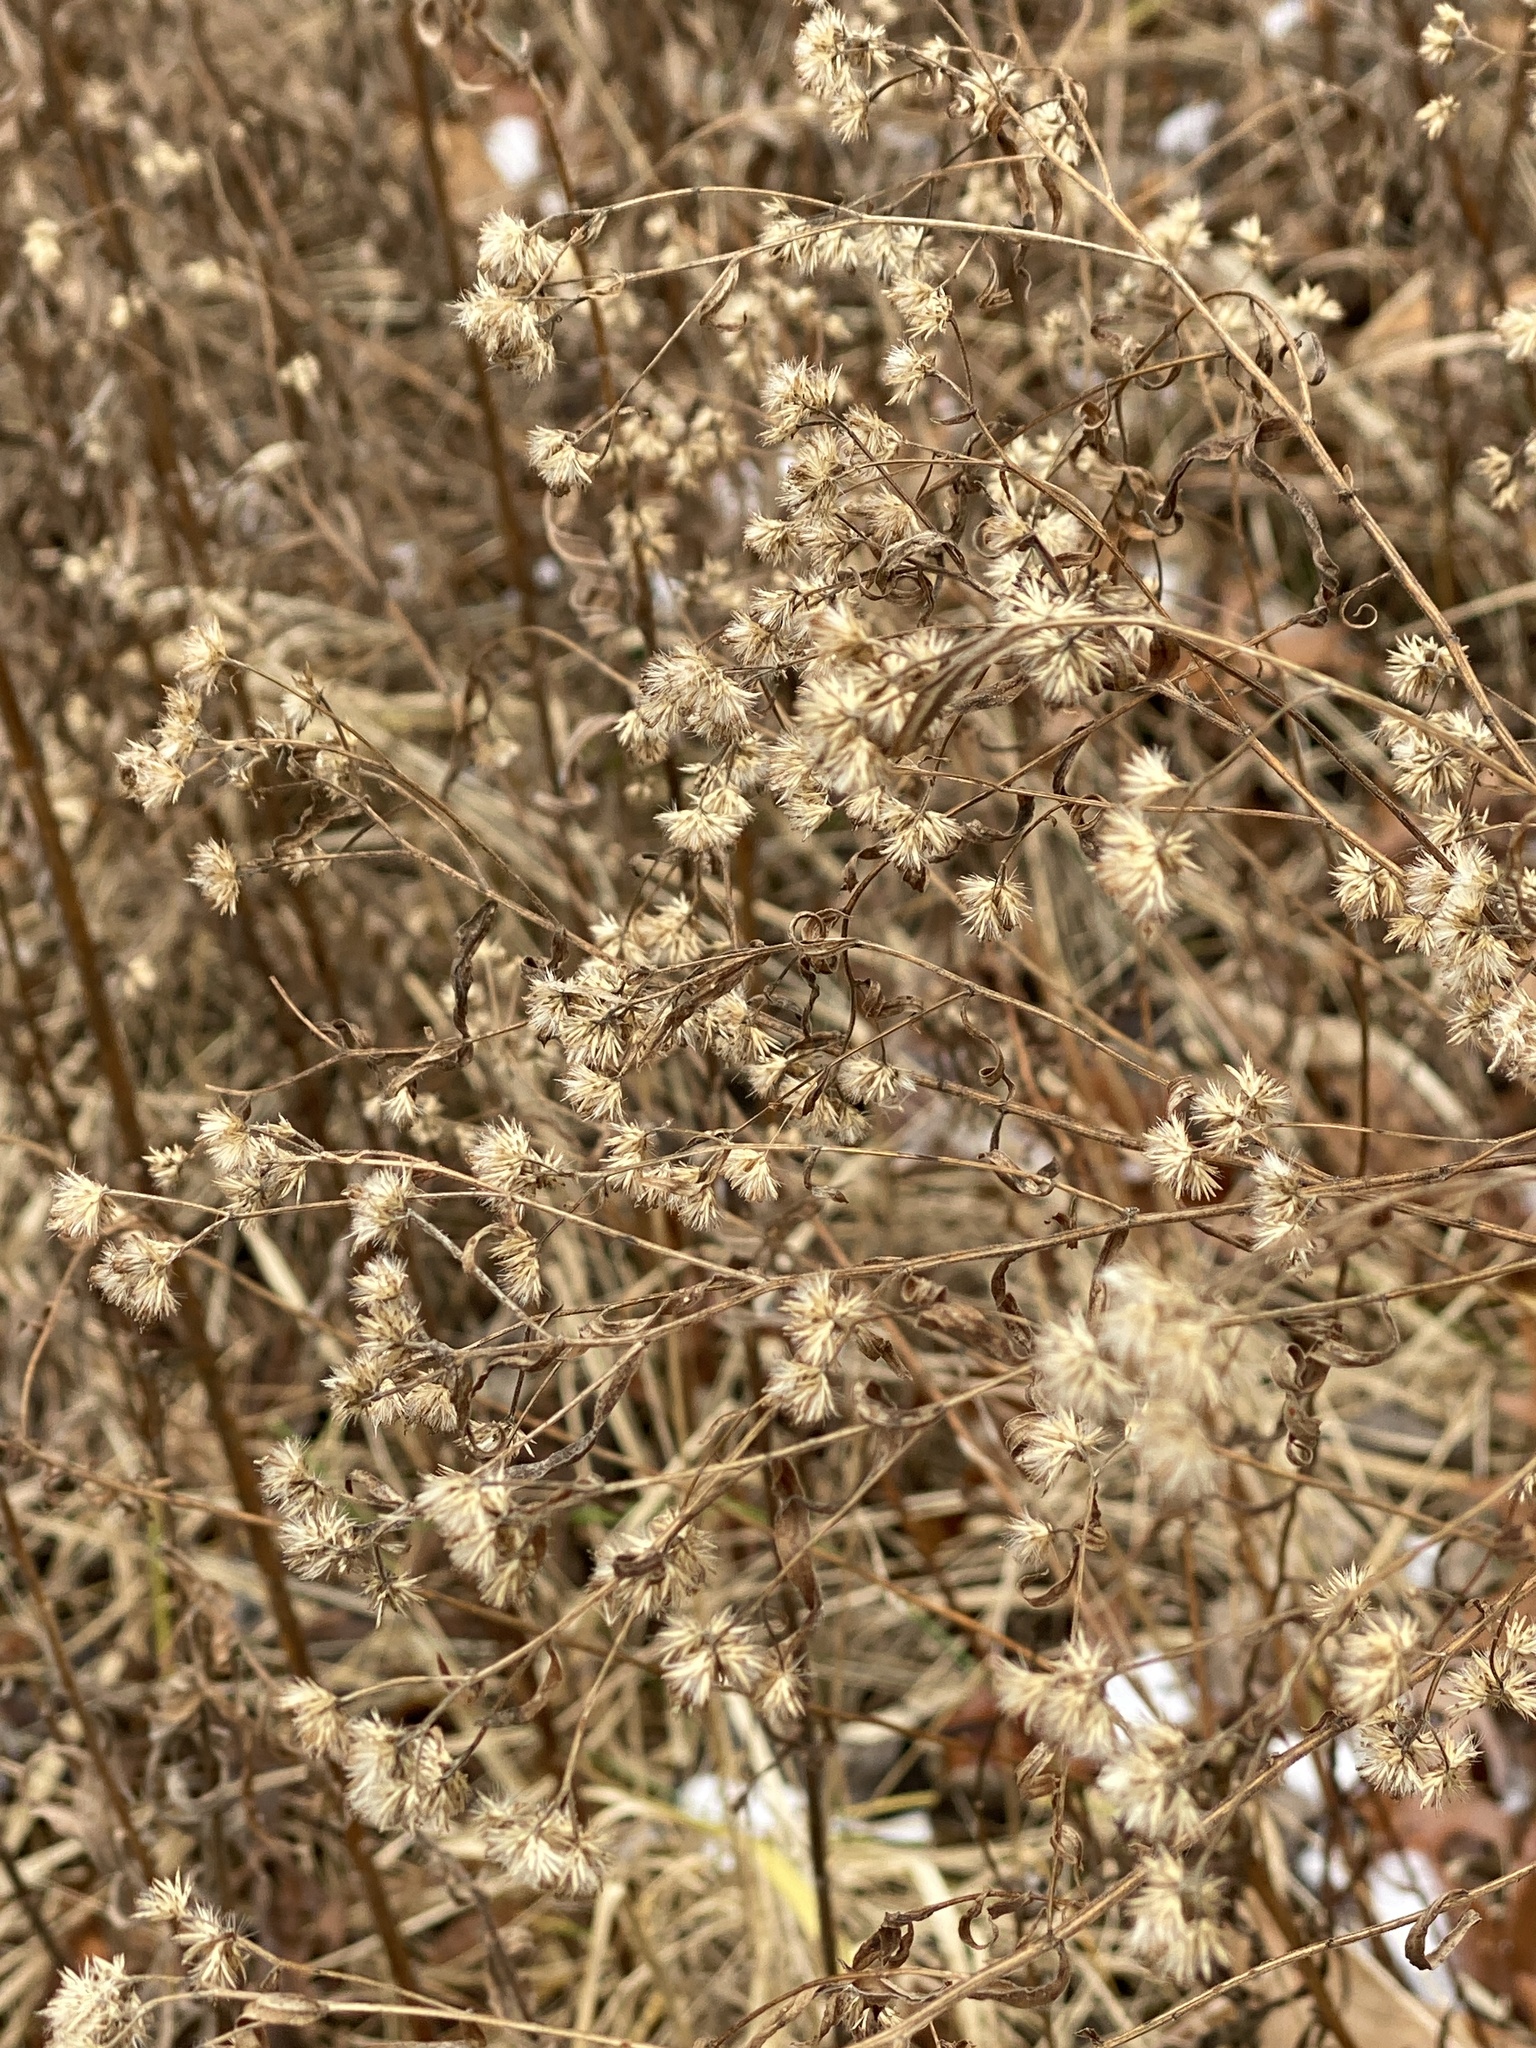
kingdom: Plantae
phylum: Tracheophyta
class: Magnoliopsida
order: Asterales
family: Asteraceae
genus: Euthamia
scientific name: Euthamia graminifolia
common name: Common goldentop
